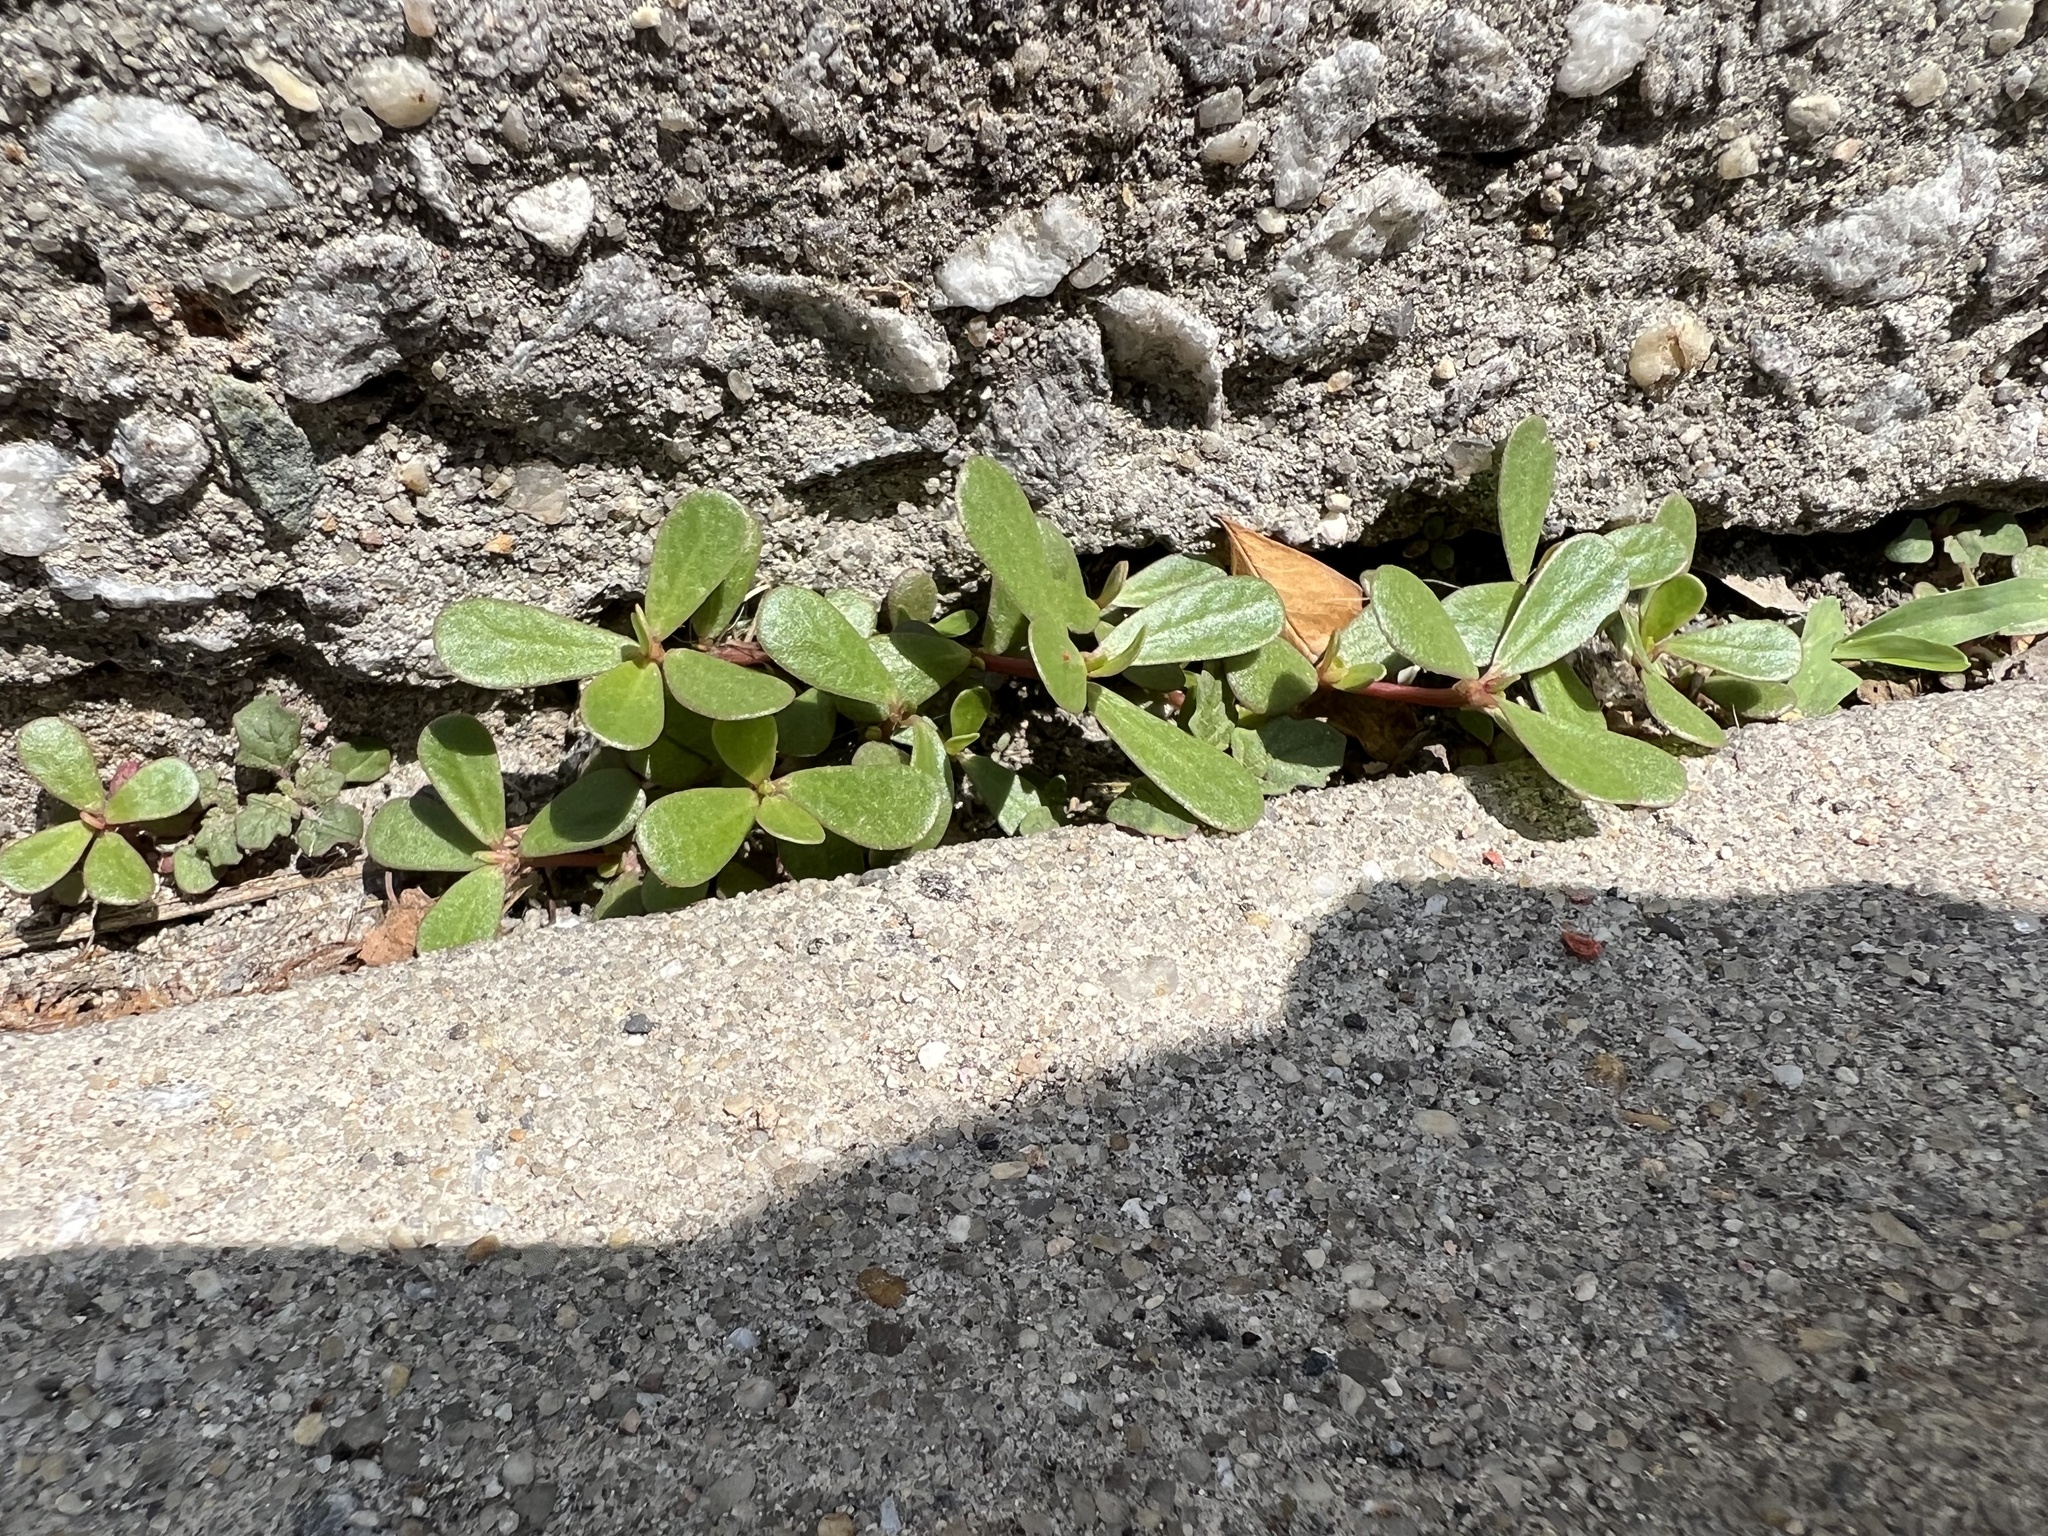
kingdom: Plantae
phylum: Tracheophyta
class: Magnoliopsida
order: Caryophyllales
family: Portulacaceae
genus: Portulaca
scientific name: Portulaca oleracea
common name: Common purslane
